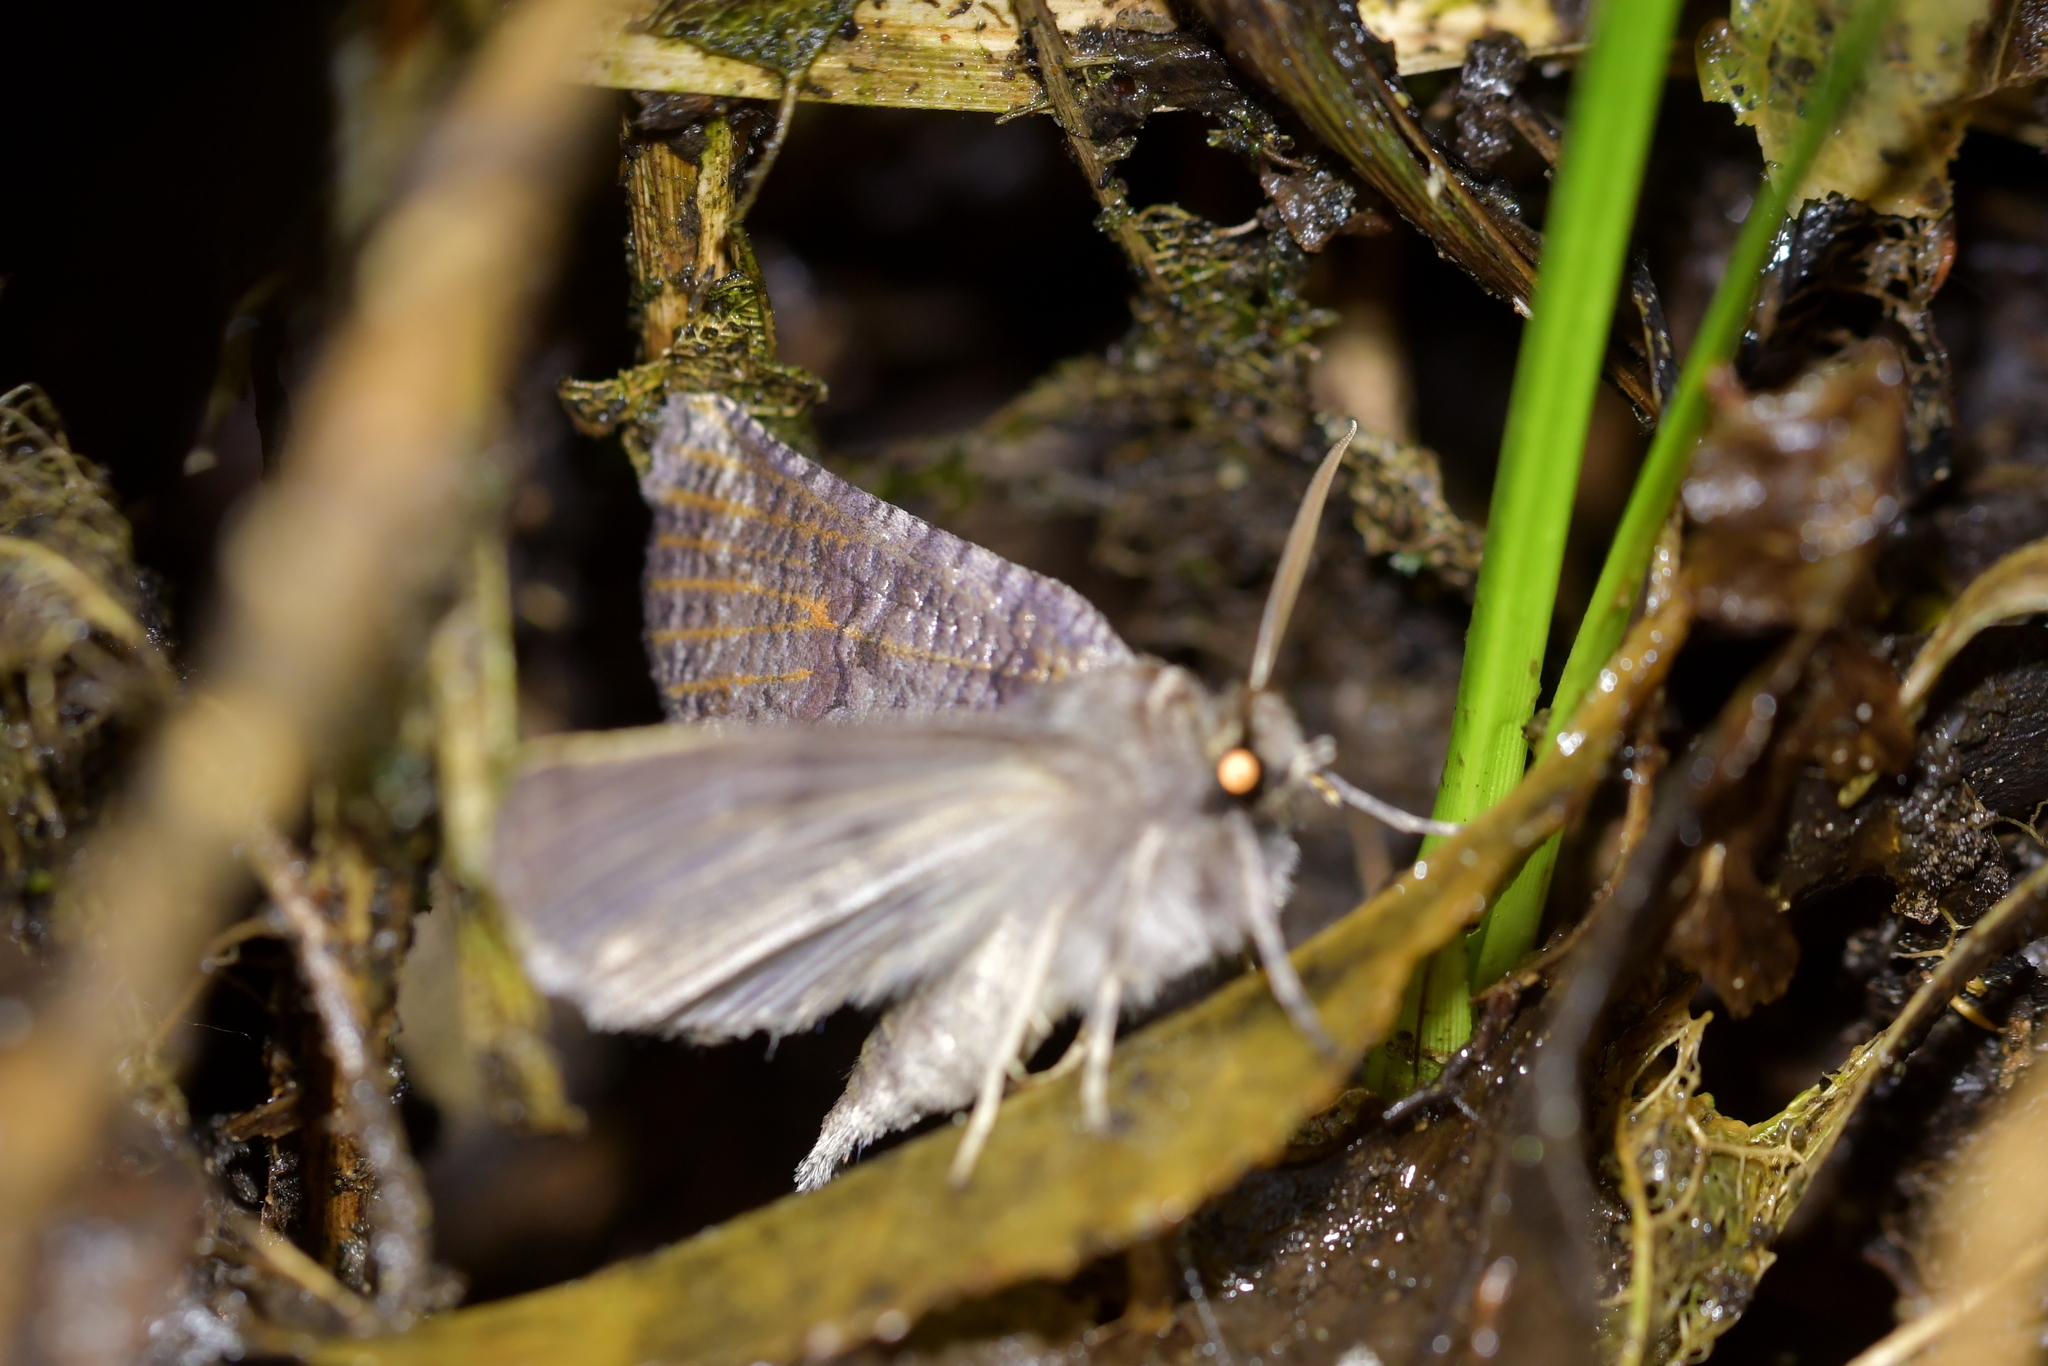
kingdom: Animalia
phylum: Arthropoda
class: Insecta
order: Lepidoptera
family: Geometridae
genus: Declana
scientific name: Declana
